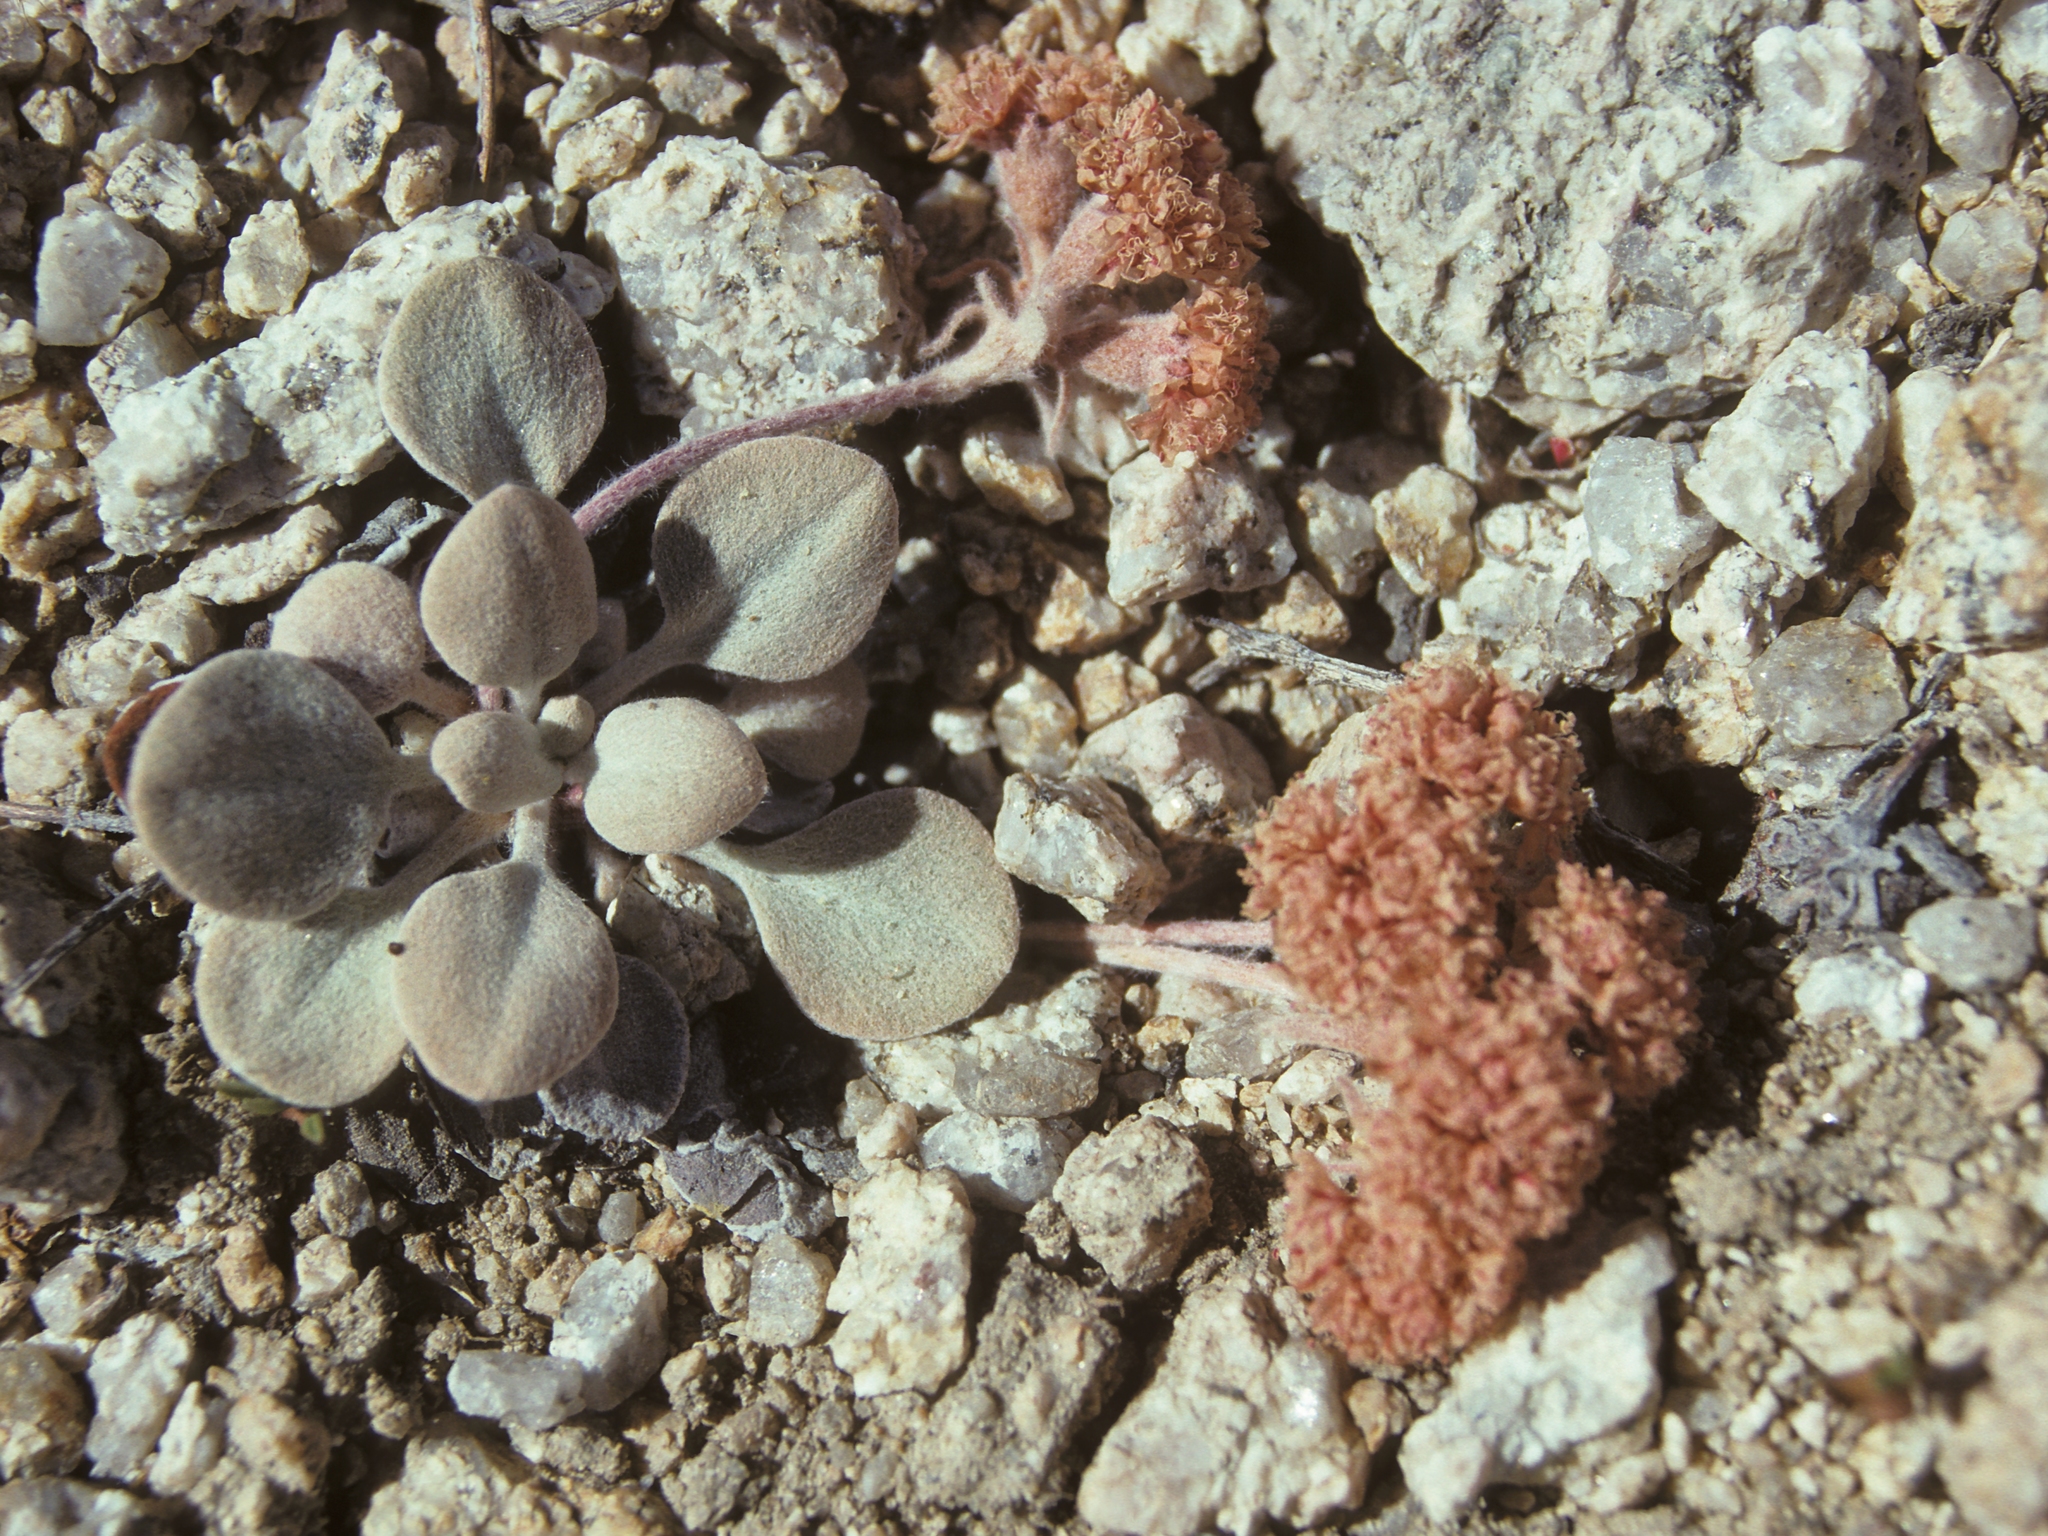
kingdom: Plantae
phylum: Tracheophyta
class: Magnoliopsida
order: Caryophyllales
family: Polygonaceae
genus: Eriogonum
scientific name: Eriogonum lobbii
